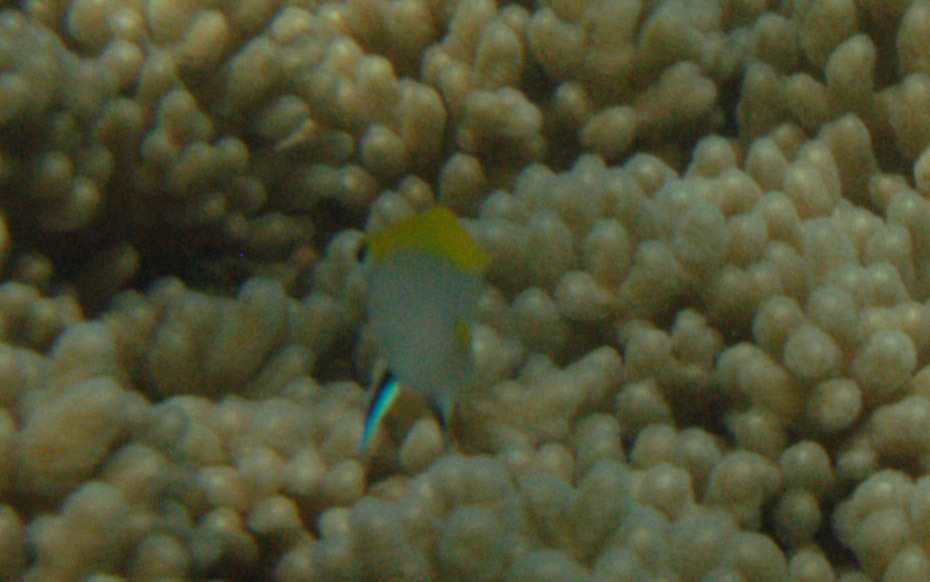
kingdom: Animalia
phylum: Chordata
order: Perciformes
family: Pomacentridae
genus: Neoglyphidodon
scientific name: Neoglyphidodon melas
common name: Black damsel
